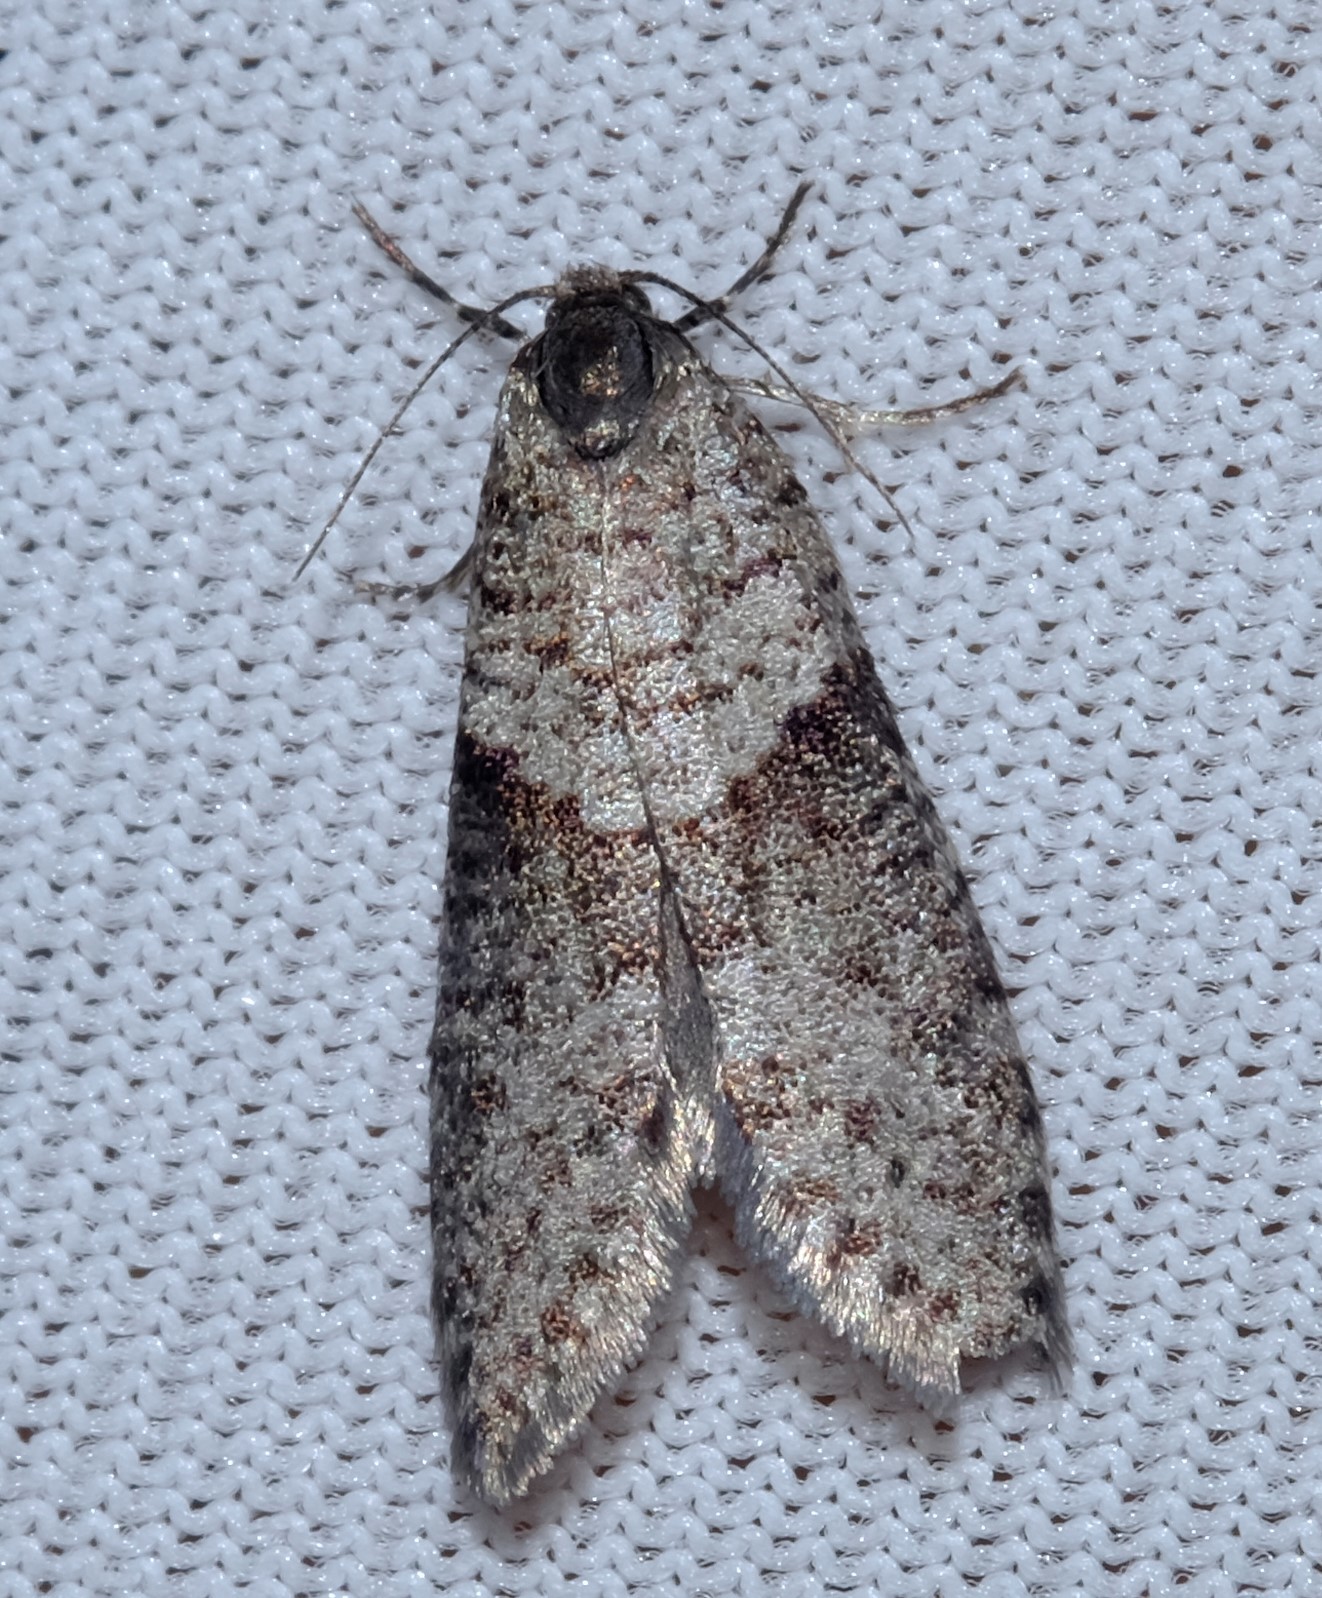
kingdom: Animalia
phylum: Arthropoda
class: Insecta
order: Lepidoptera
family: Psychidae
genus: Lepidoscia
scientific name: Lepidoscia annosella
